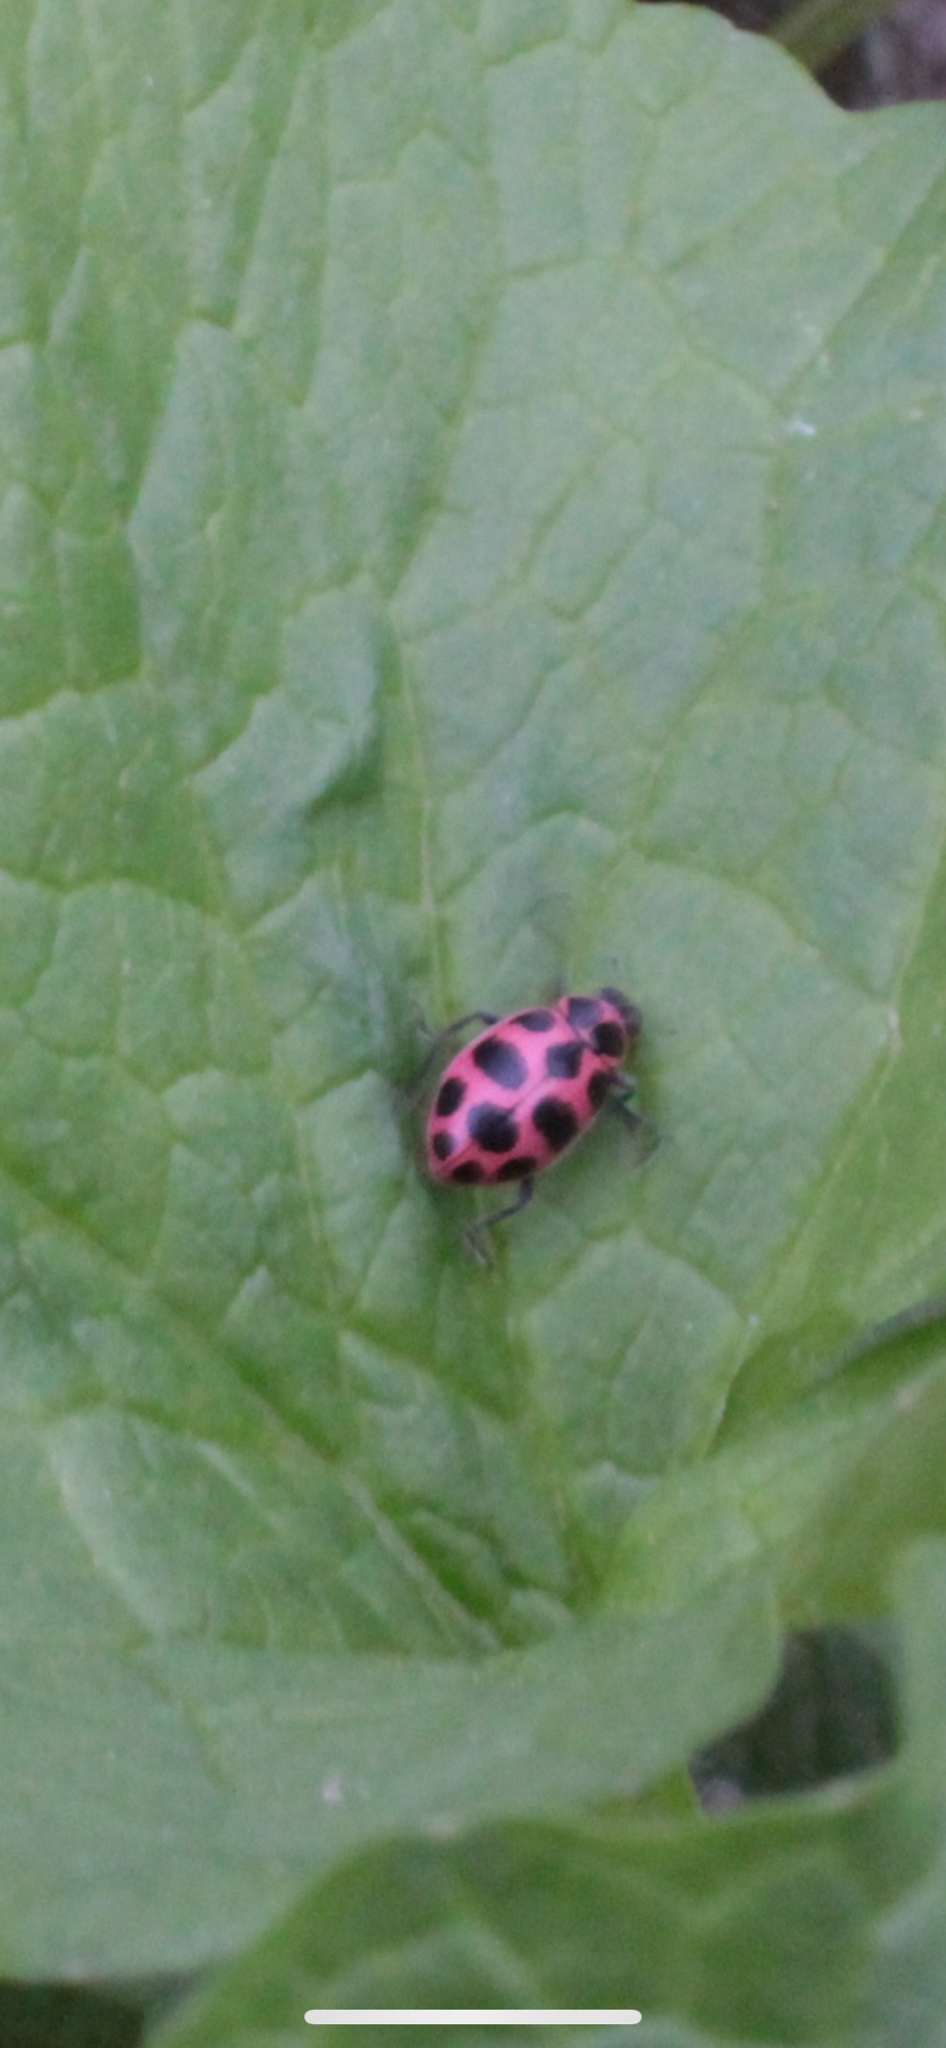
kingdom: Animalia
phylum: Arthropoda
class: Insecta
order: Coleoptera
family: Coccinellidae
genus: Coleomegilla
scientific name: Coleomegilla maculata
